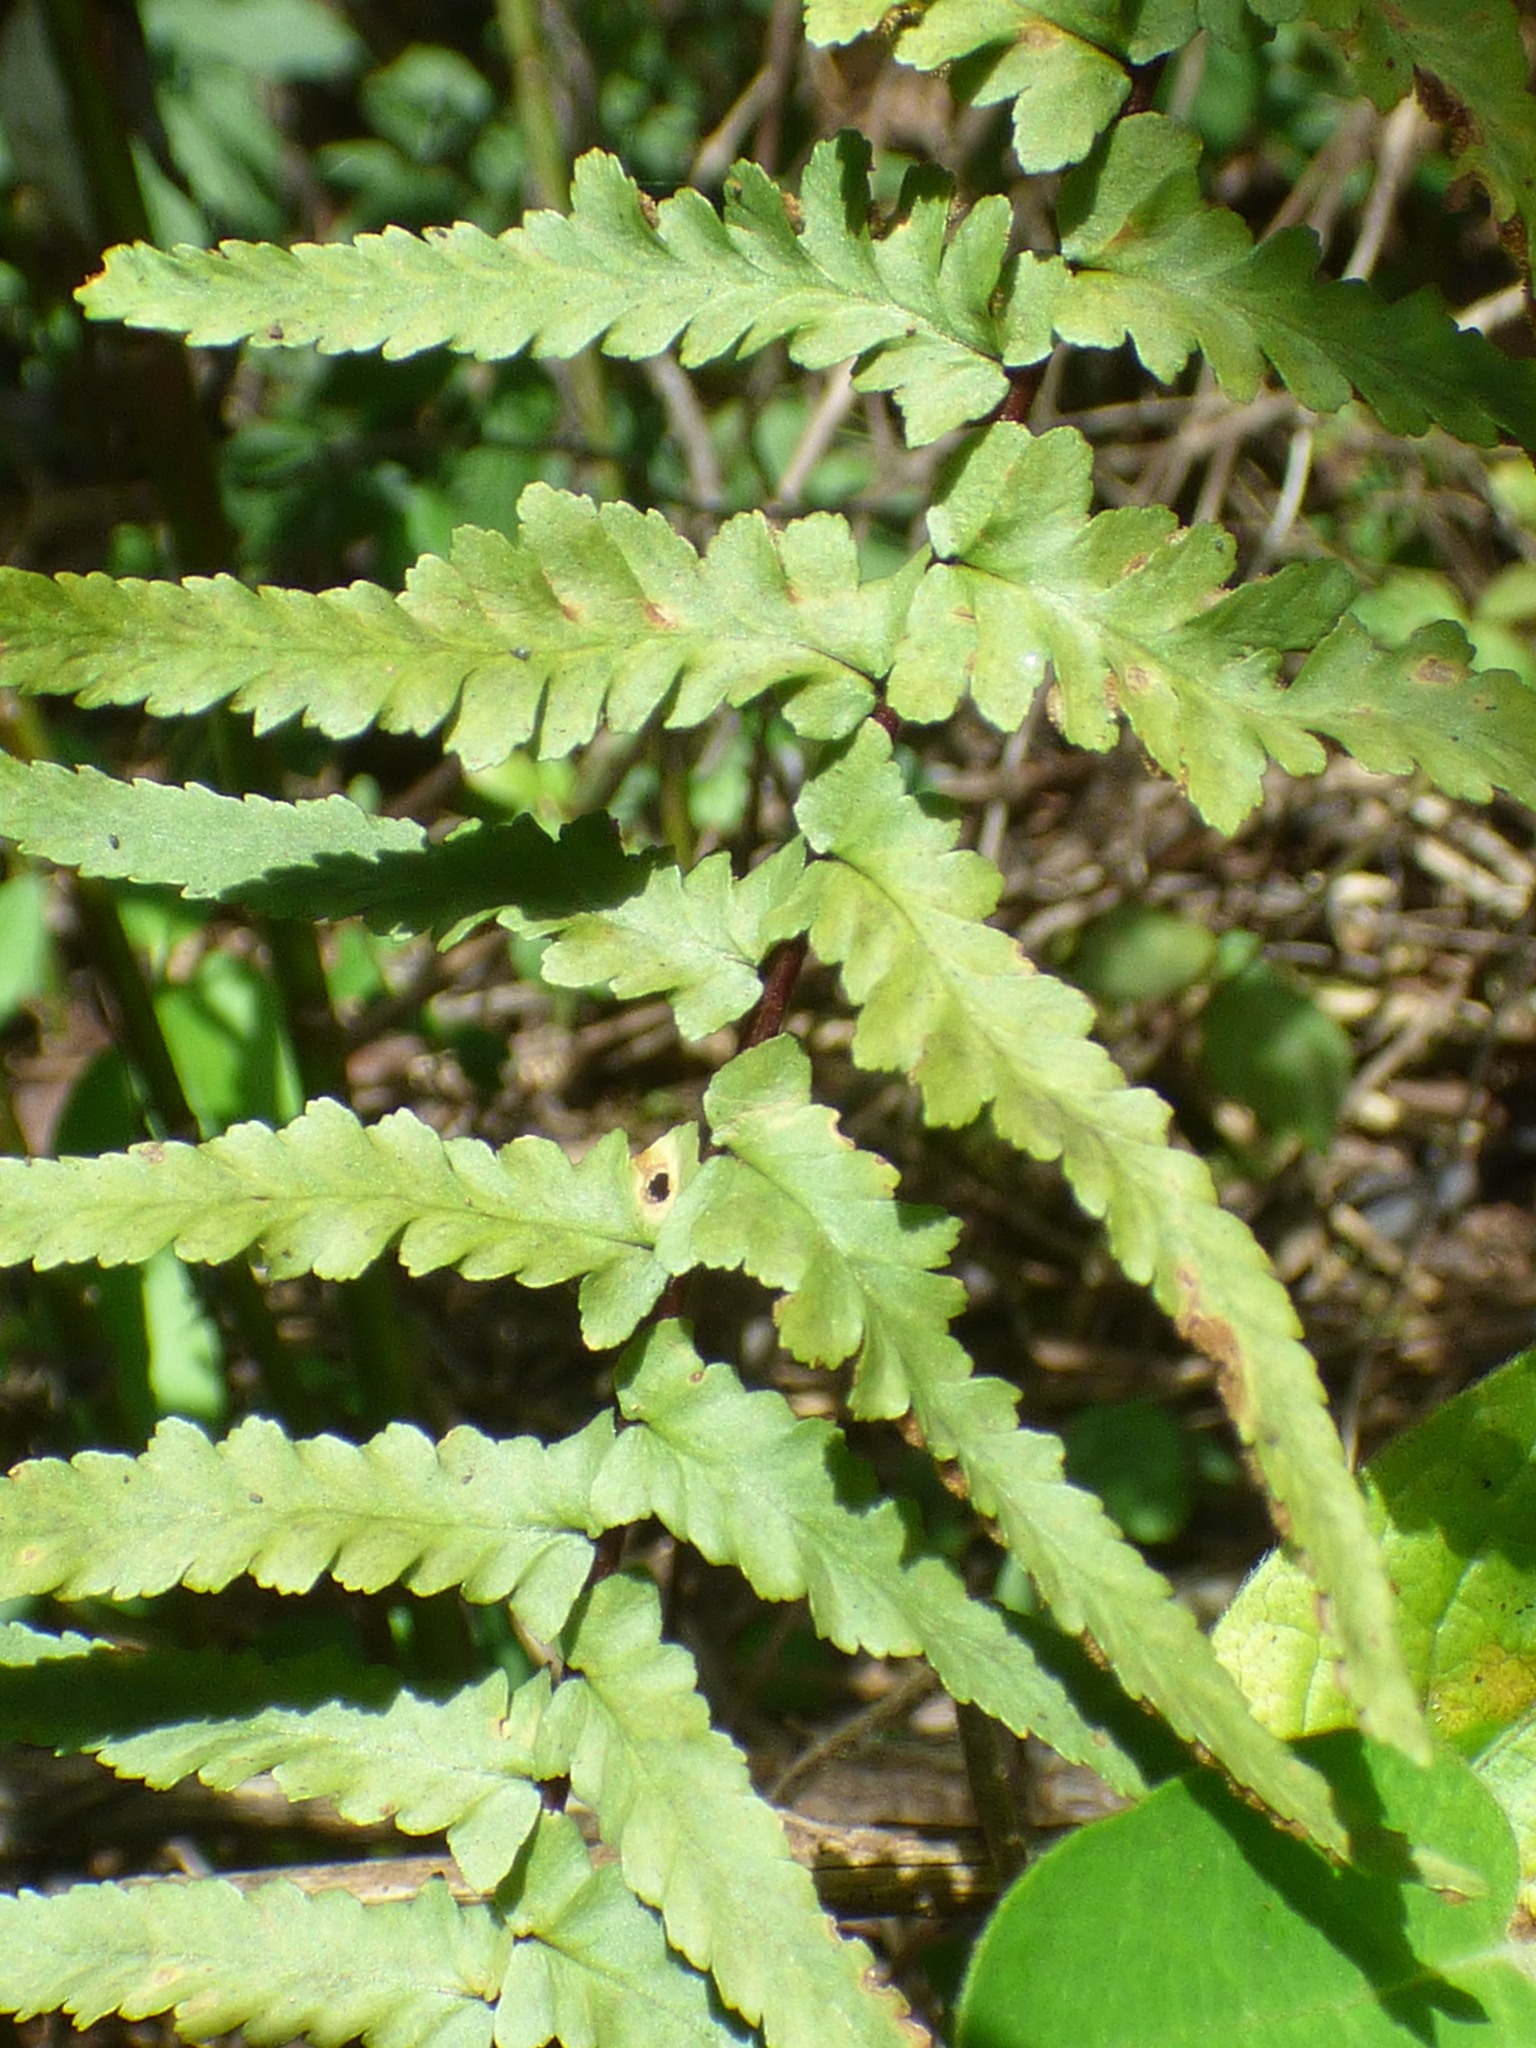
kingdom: Plantae
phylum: Tracheophyta
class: Polypodiopsida
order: Polypodiales
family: Aspleniaceae
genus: Asplenium
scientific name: Asplenium platyneuron
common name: Ebony spleenwort
